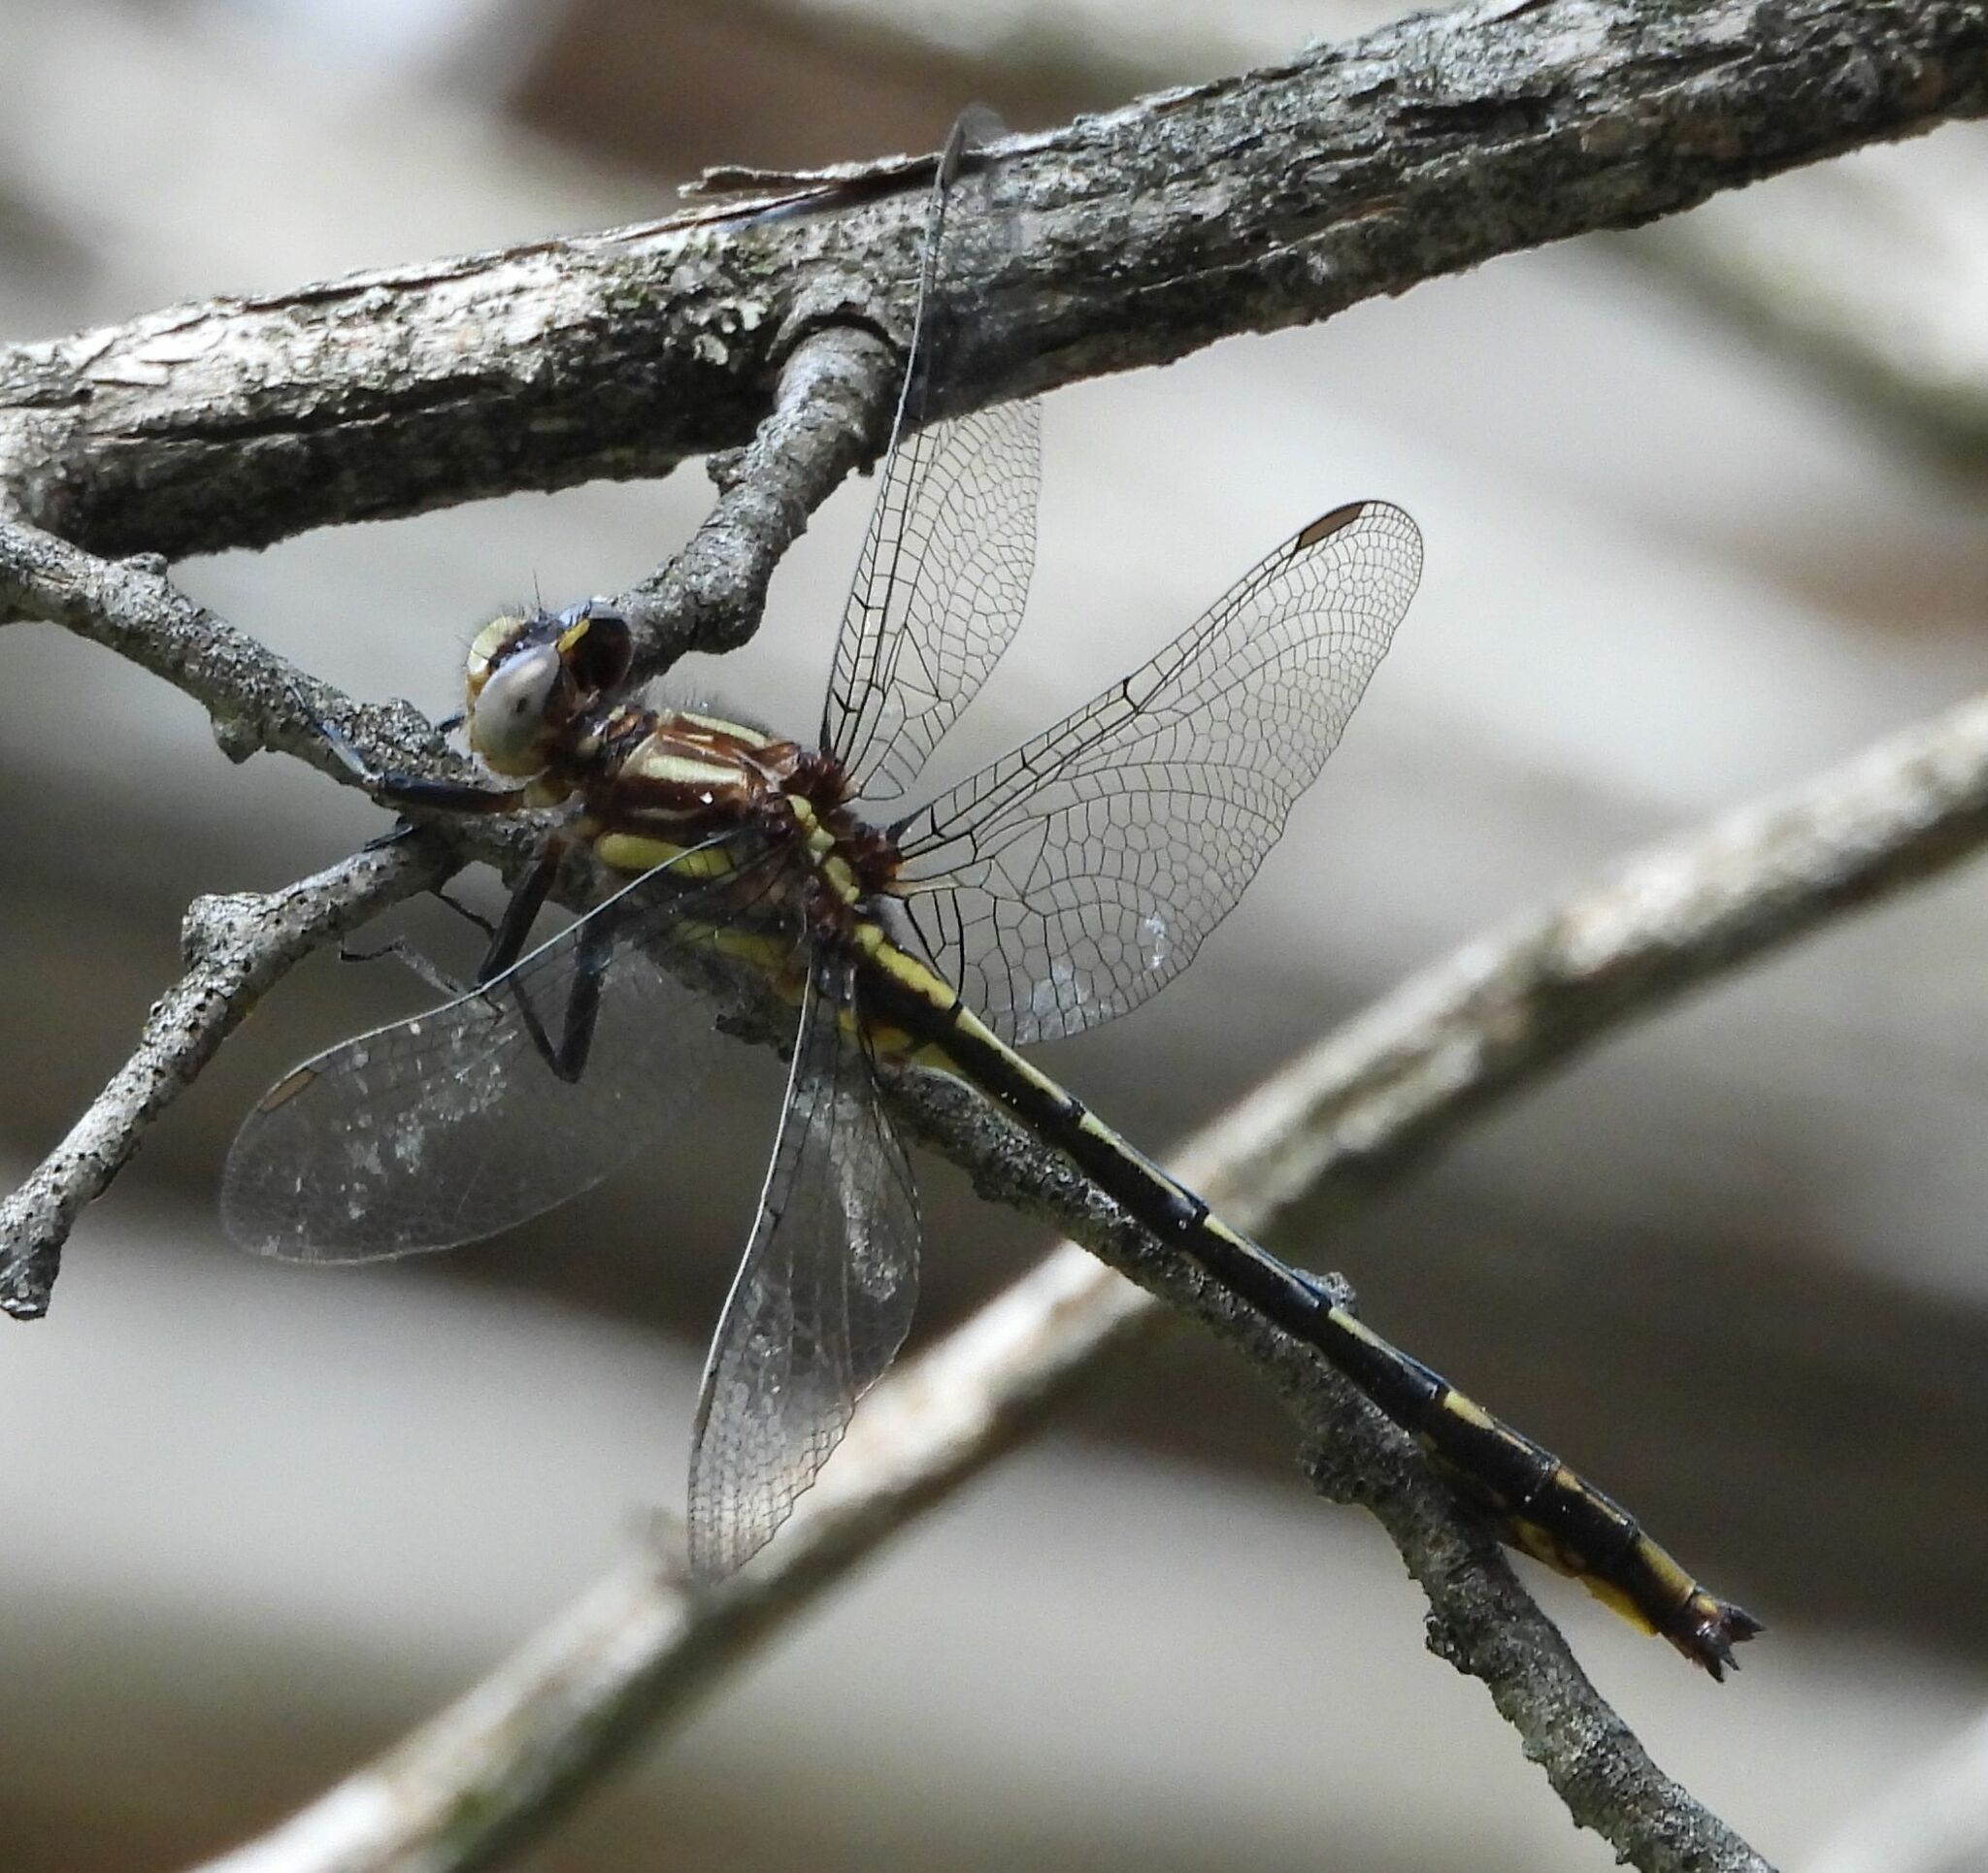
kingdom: Animalia
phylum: Arthropoda
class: Insecta
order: Odonata
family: Gomphidae
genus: Phanogomphus
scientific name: Phanogomphus exilis
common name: Lancet clubtail
